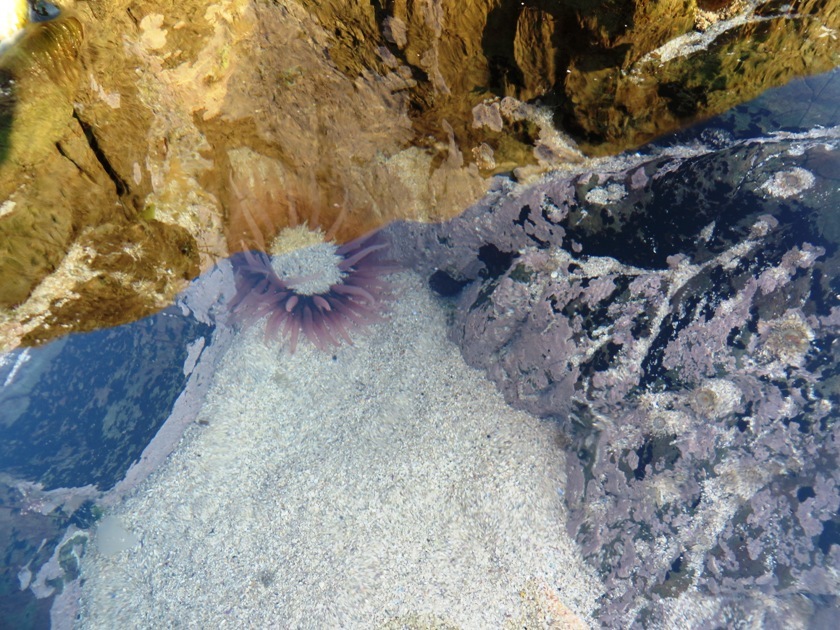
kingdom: Animalia
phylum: Cnidaria
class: Anthozoa
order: Actiniaria
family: Actiniidae
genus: Anthopleura
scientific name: Anthopleura michaelseni
